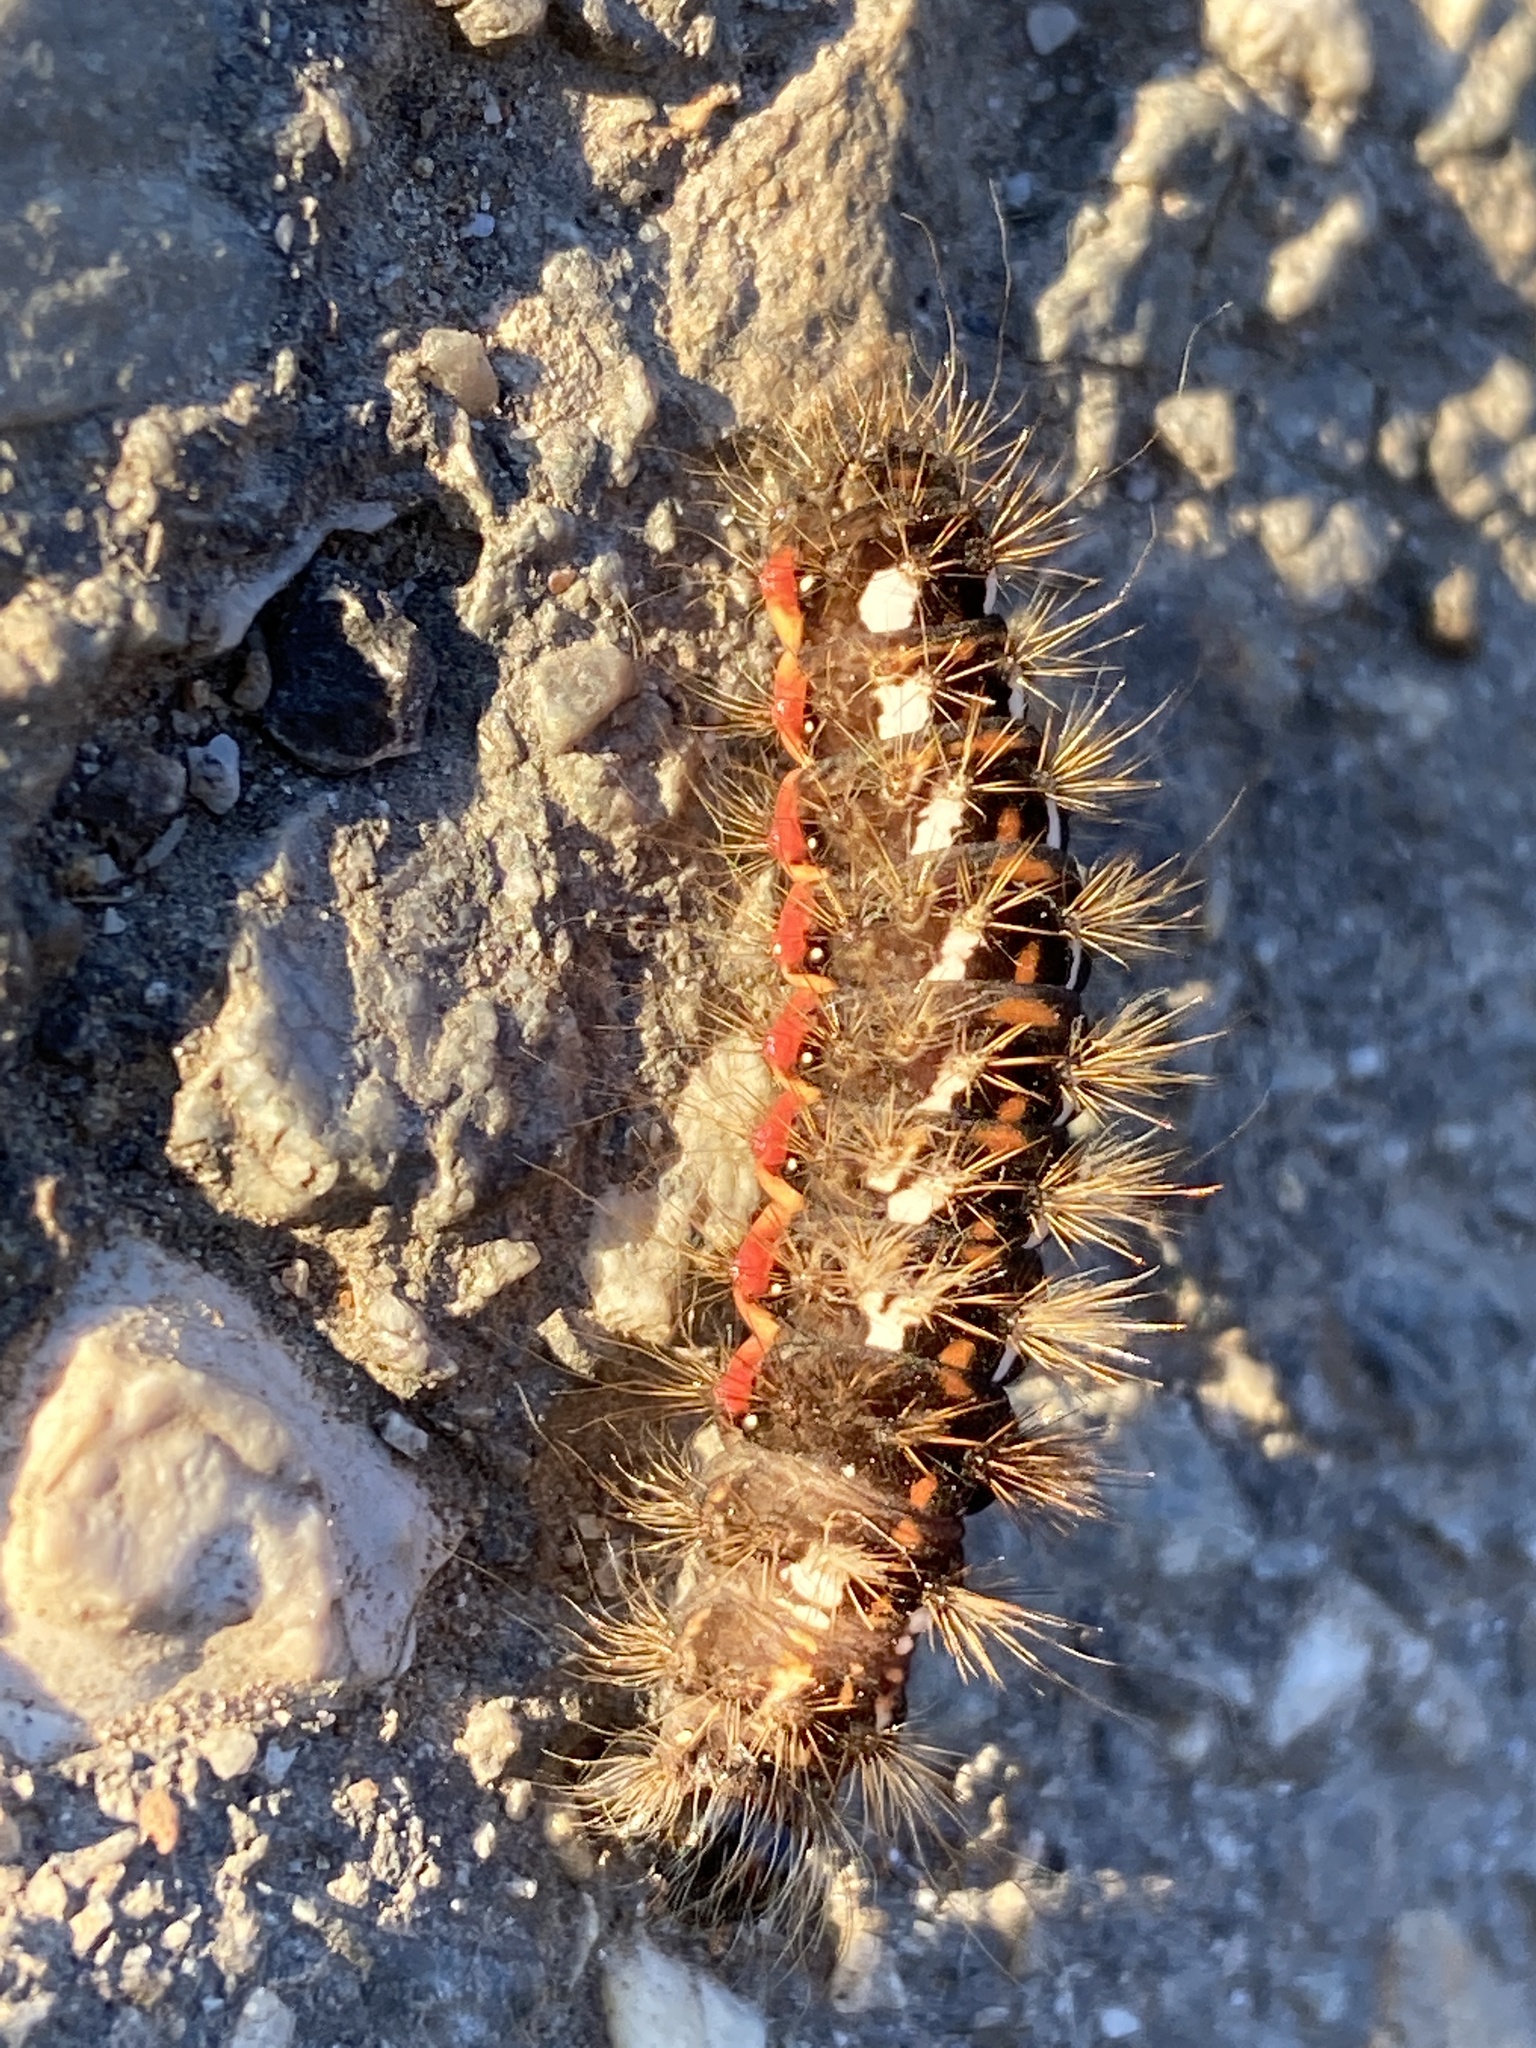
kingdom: Animalia
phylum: Arthropoda
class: Insecta
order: Lepidoptera
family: Noctuidae
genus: Acronicta
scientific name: Acronicta rumicis
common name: Knot grass
